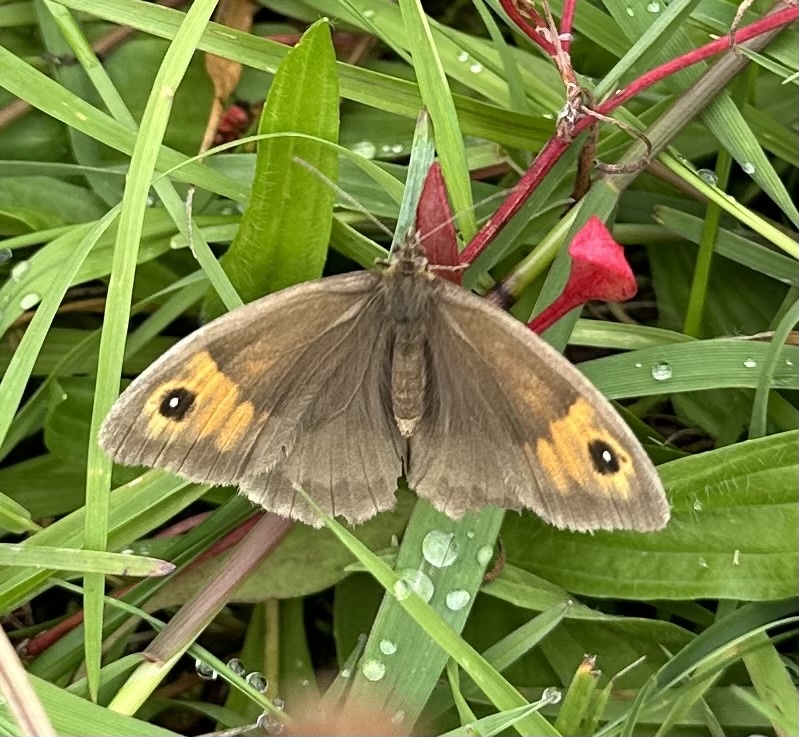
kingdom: Animalia
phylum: Arthropoda
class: Insecta
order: Lepidoptera
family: Nymphalidae
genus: Maniola
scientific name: Maniola jurtina
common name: Meadow brown
